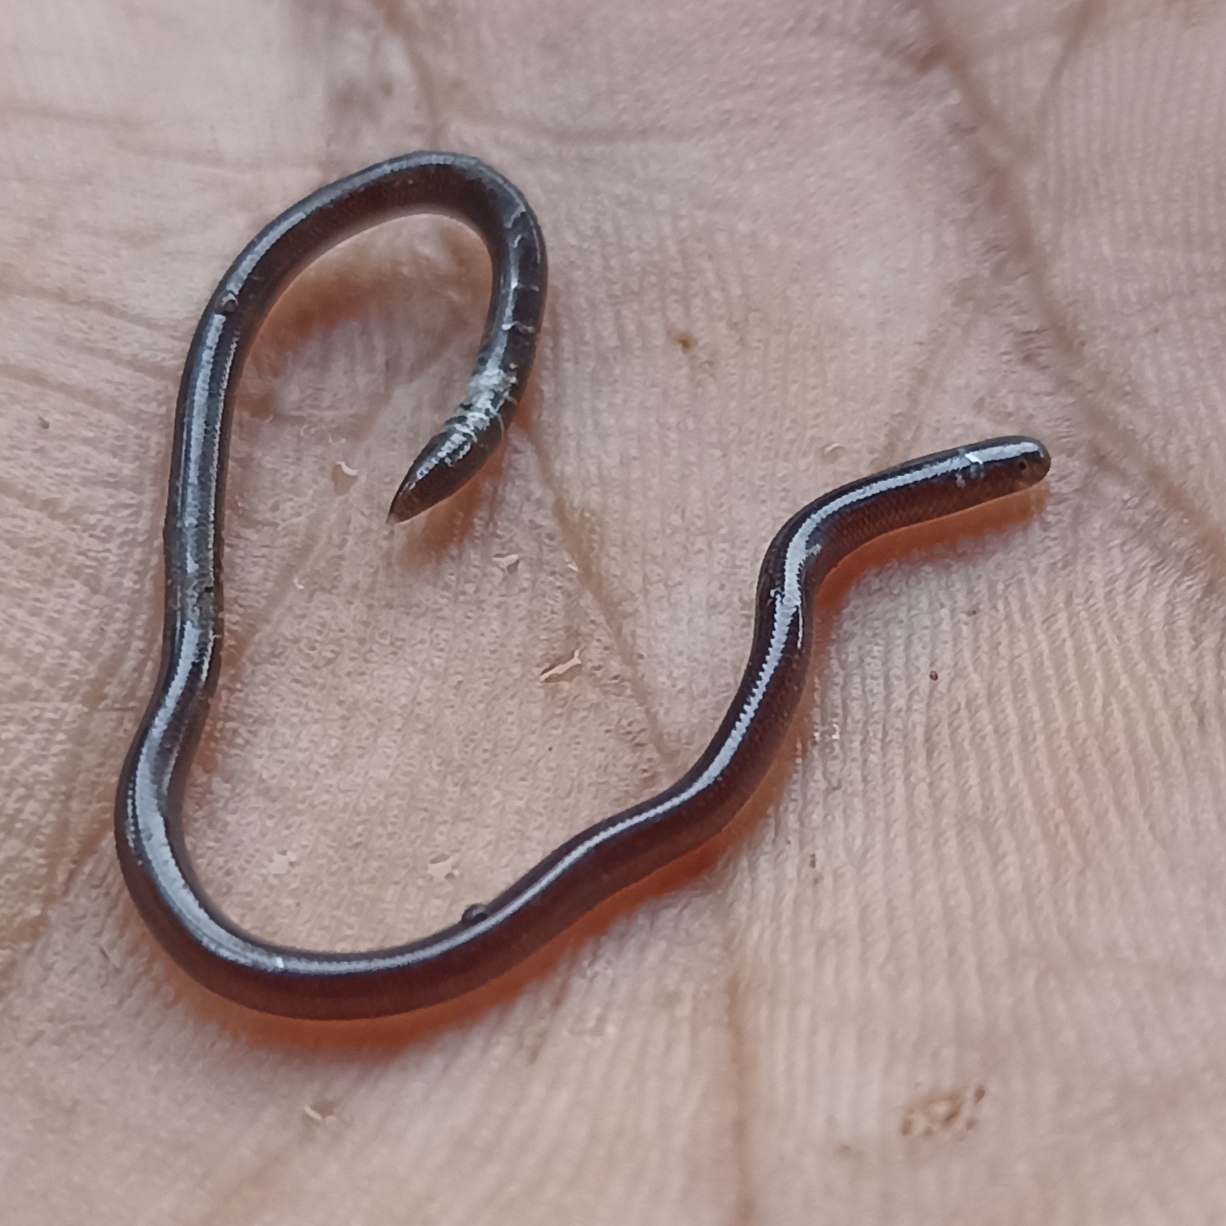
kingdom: Animalia
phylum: Chordata
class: Squamata
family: Typhlopidae
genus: Indotyphlops
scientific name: Indotyphlops braminus
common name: Brahminy blindsnake
